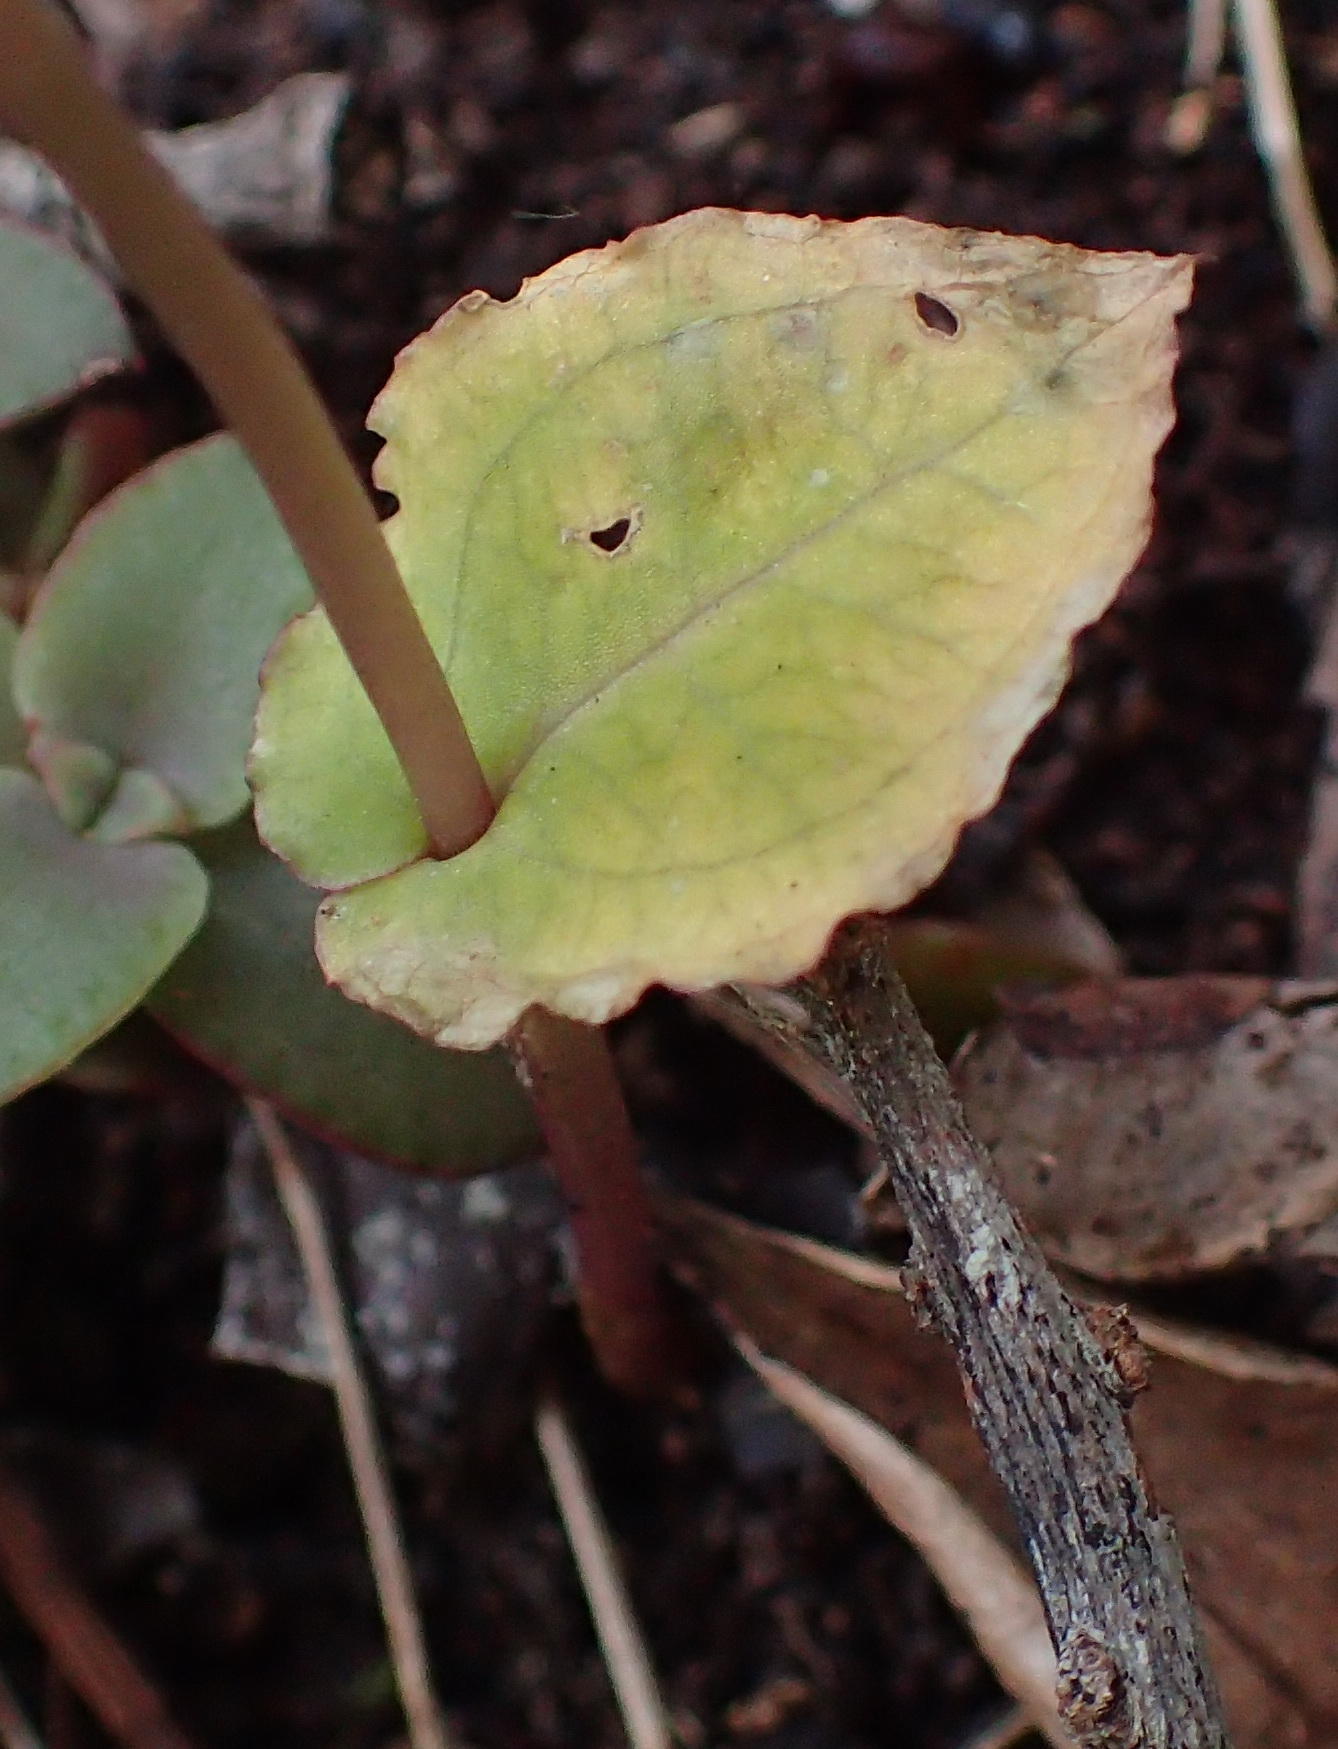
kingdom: Plantae
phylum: Tracheophyta
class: Liliopsida
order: Asparagales
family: Orchidaceae
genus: Disperis
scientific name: Disperis lindleyana
